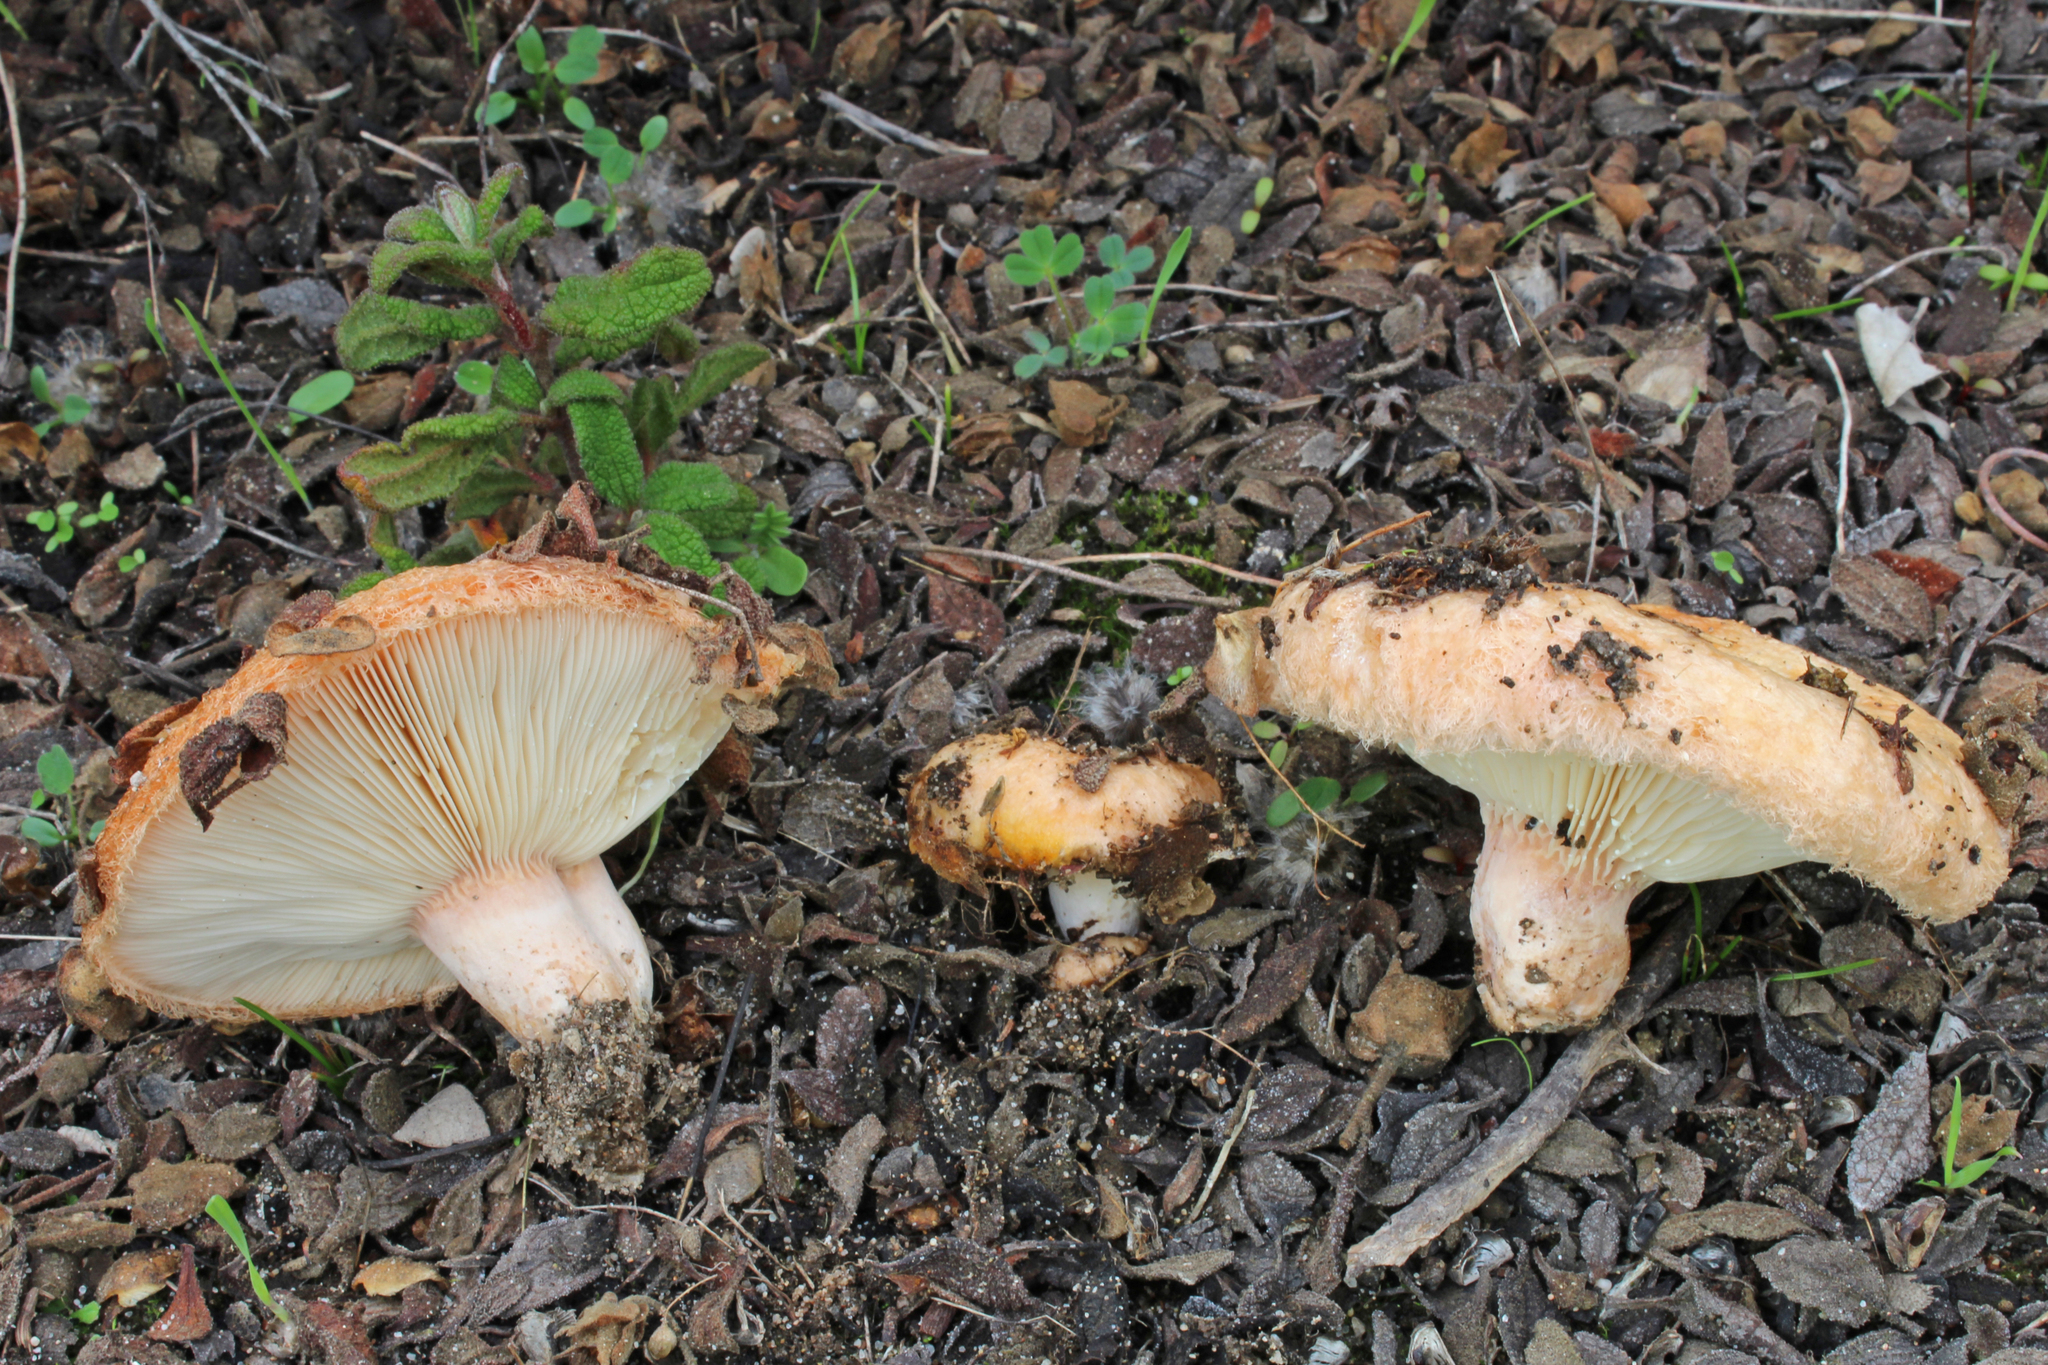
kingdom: Fungi
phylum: Basidiomycota
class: Agaricomycetes
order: Russulales
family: Russulaceae
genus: Lactarius
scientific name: Lactarius tesquorum
